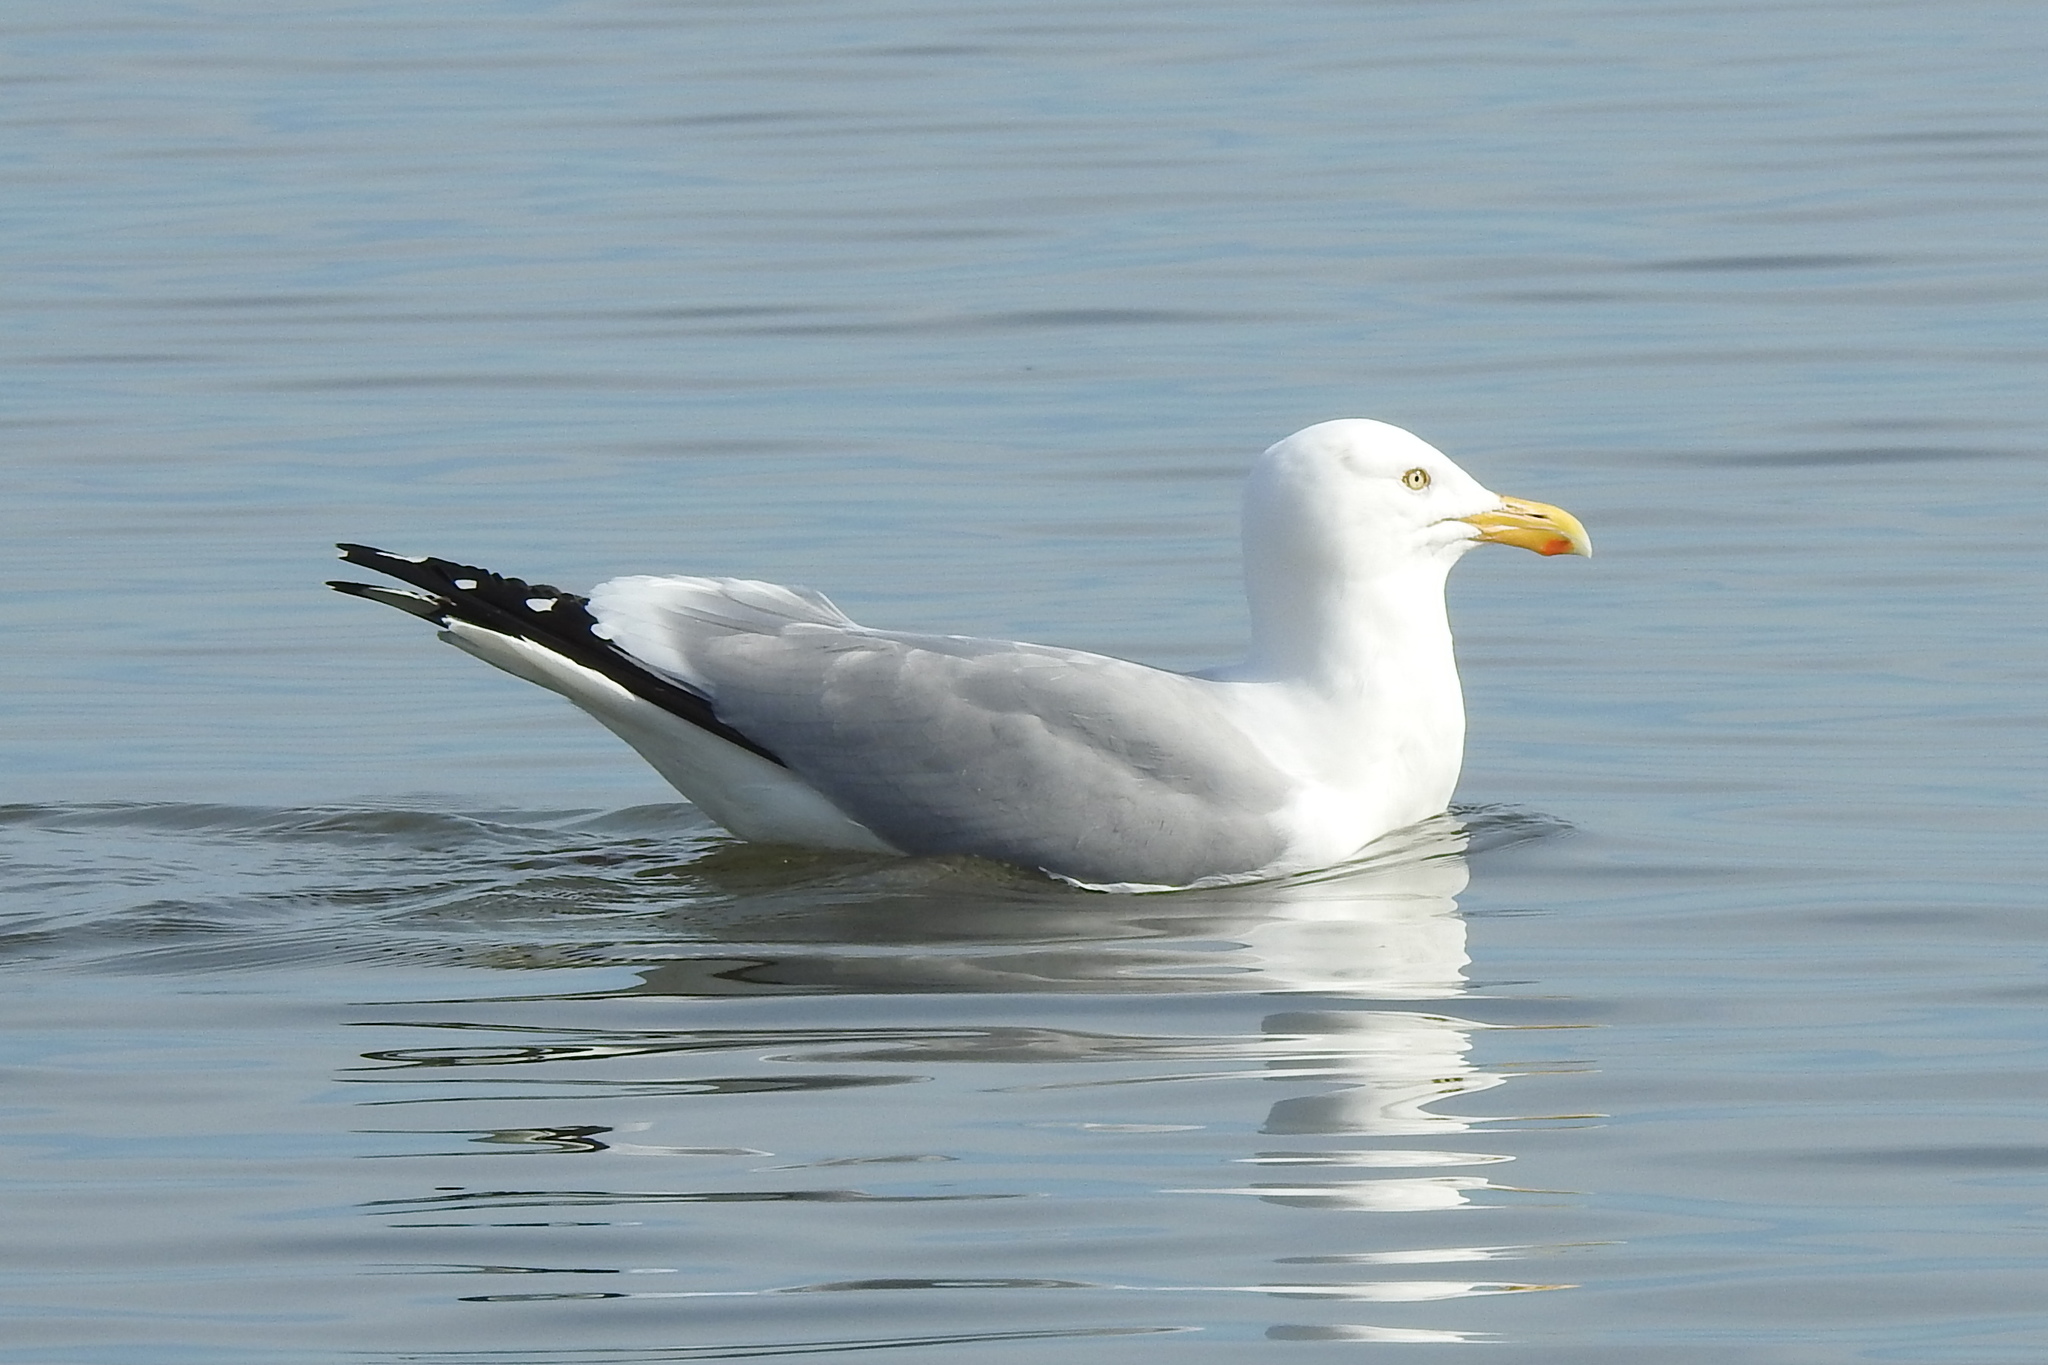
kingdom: Animalia
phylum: Chordata
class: Aves
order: Charadriiformes
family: Laridae
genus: Larus
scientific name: Larus argentatus
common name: Herring gull
